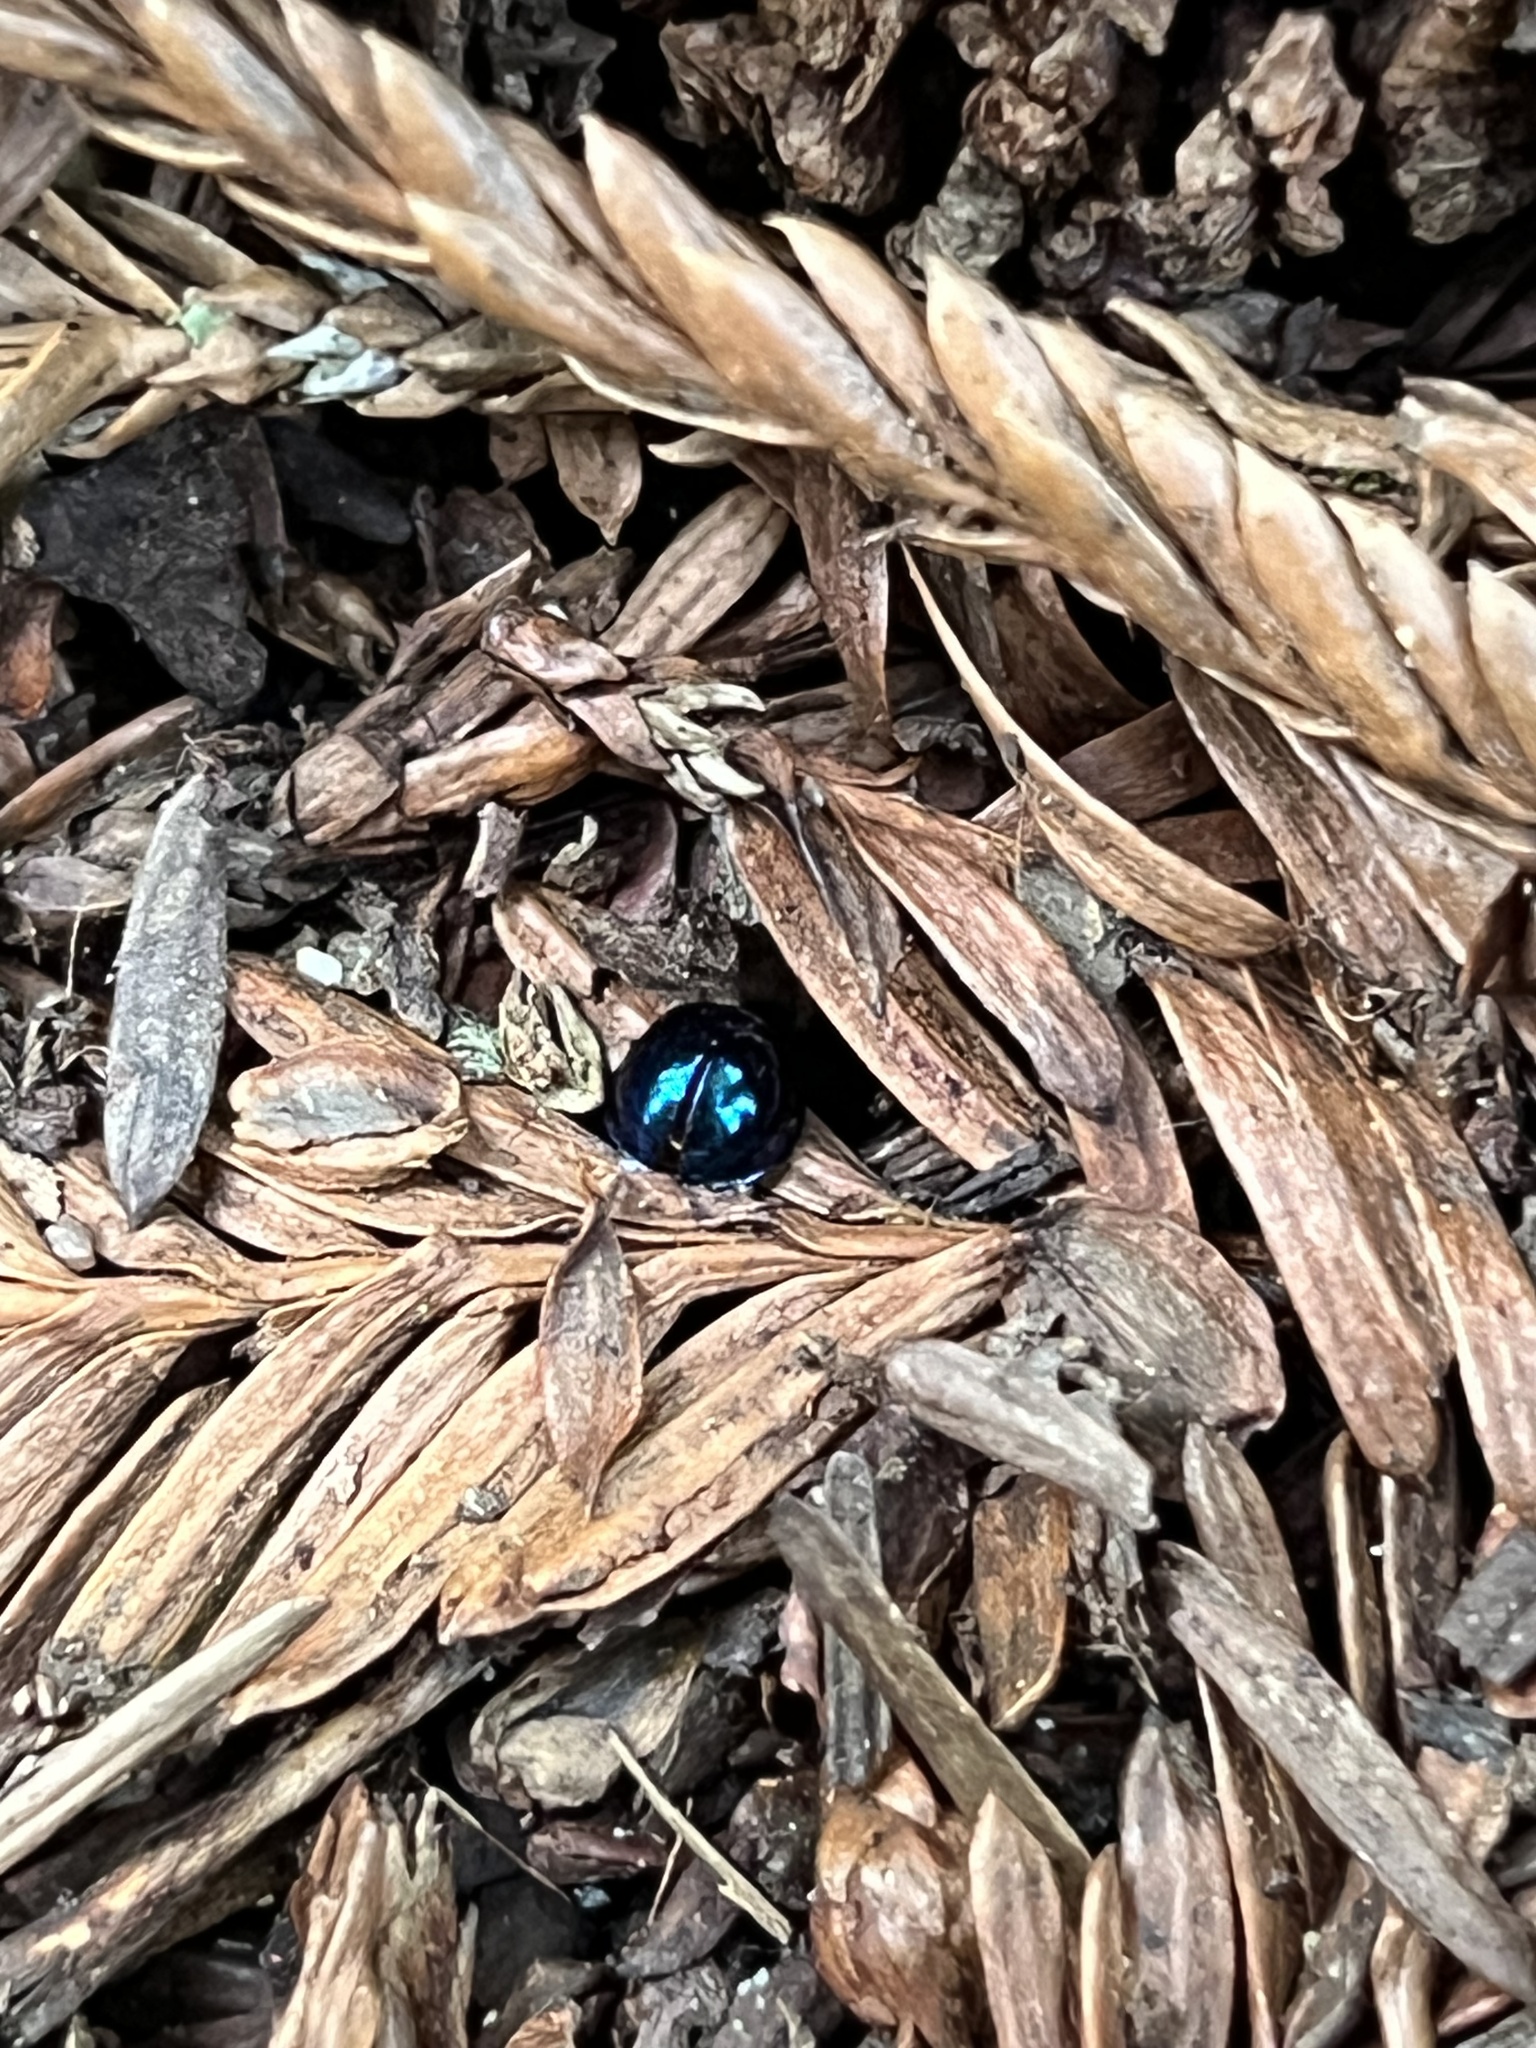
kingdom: Animalia
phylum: Arthropoda
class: Insecta
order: Coleoptera
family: Coccinellidae
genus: Halmus
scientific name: Halmus chalybeus
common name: Steel blue ladybird beetle
